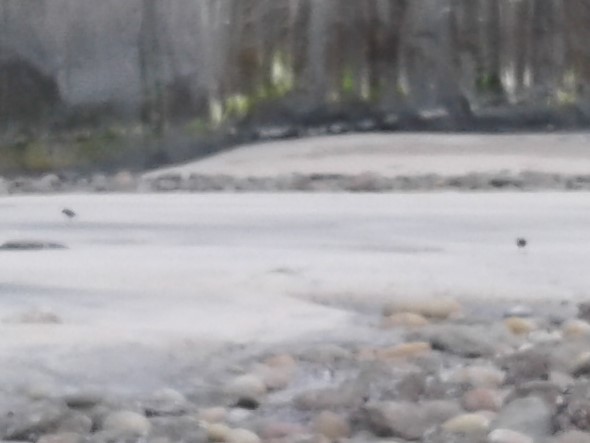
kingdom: Animalia
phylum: Chordata
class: Aves
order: Charadriiformes
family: Haematopodidae
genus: Haematopus
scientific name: Haematopus unicolor
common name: Variable oystercatcher
